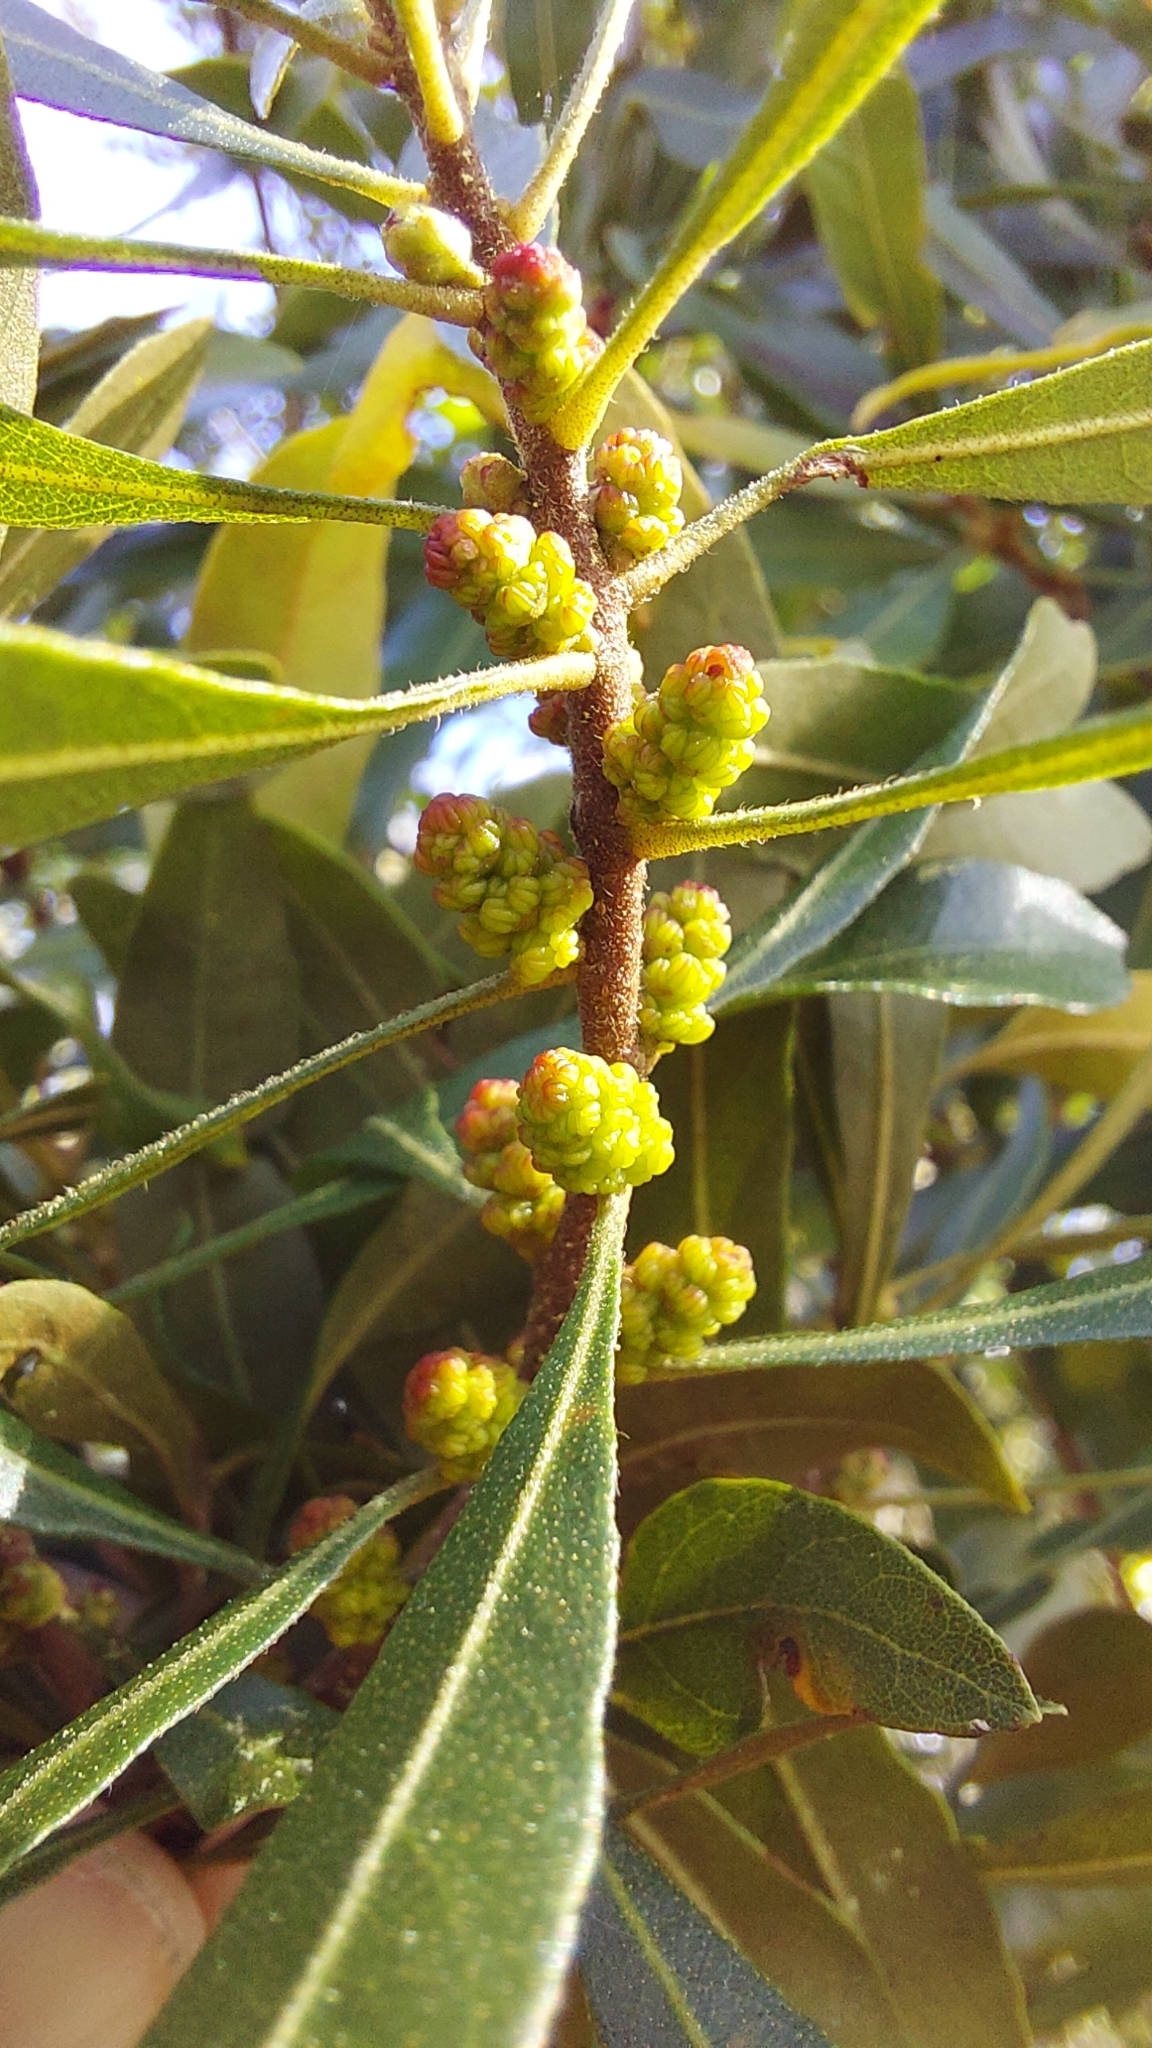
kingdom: Plantae
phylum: Tracheophyta
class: Magnoliopsida
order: Fagales
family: Myricaceae
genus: Morella
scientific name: Morella cerifera
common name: Wax myrtle
